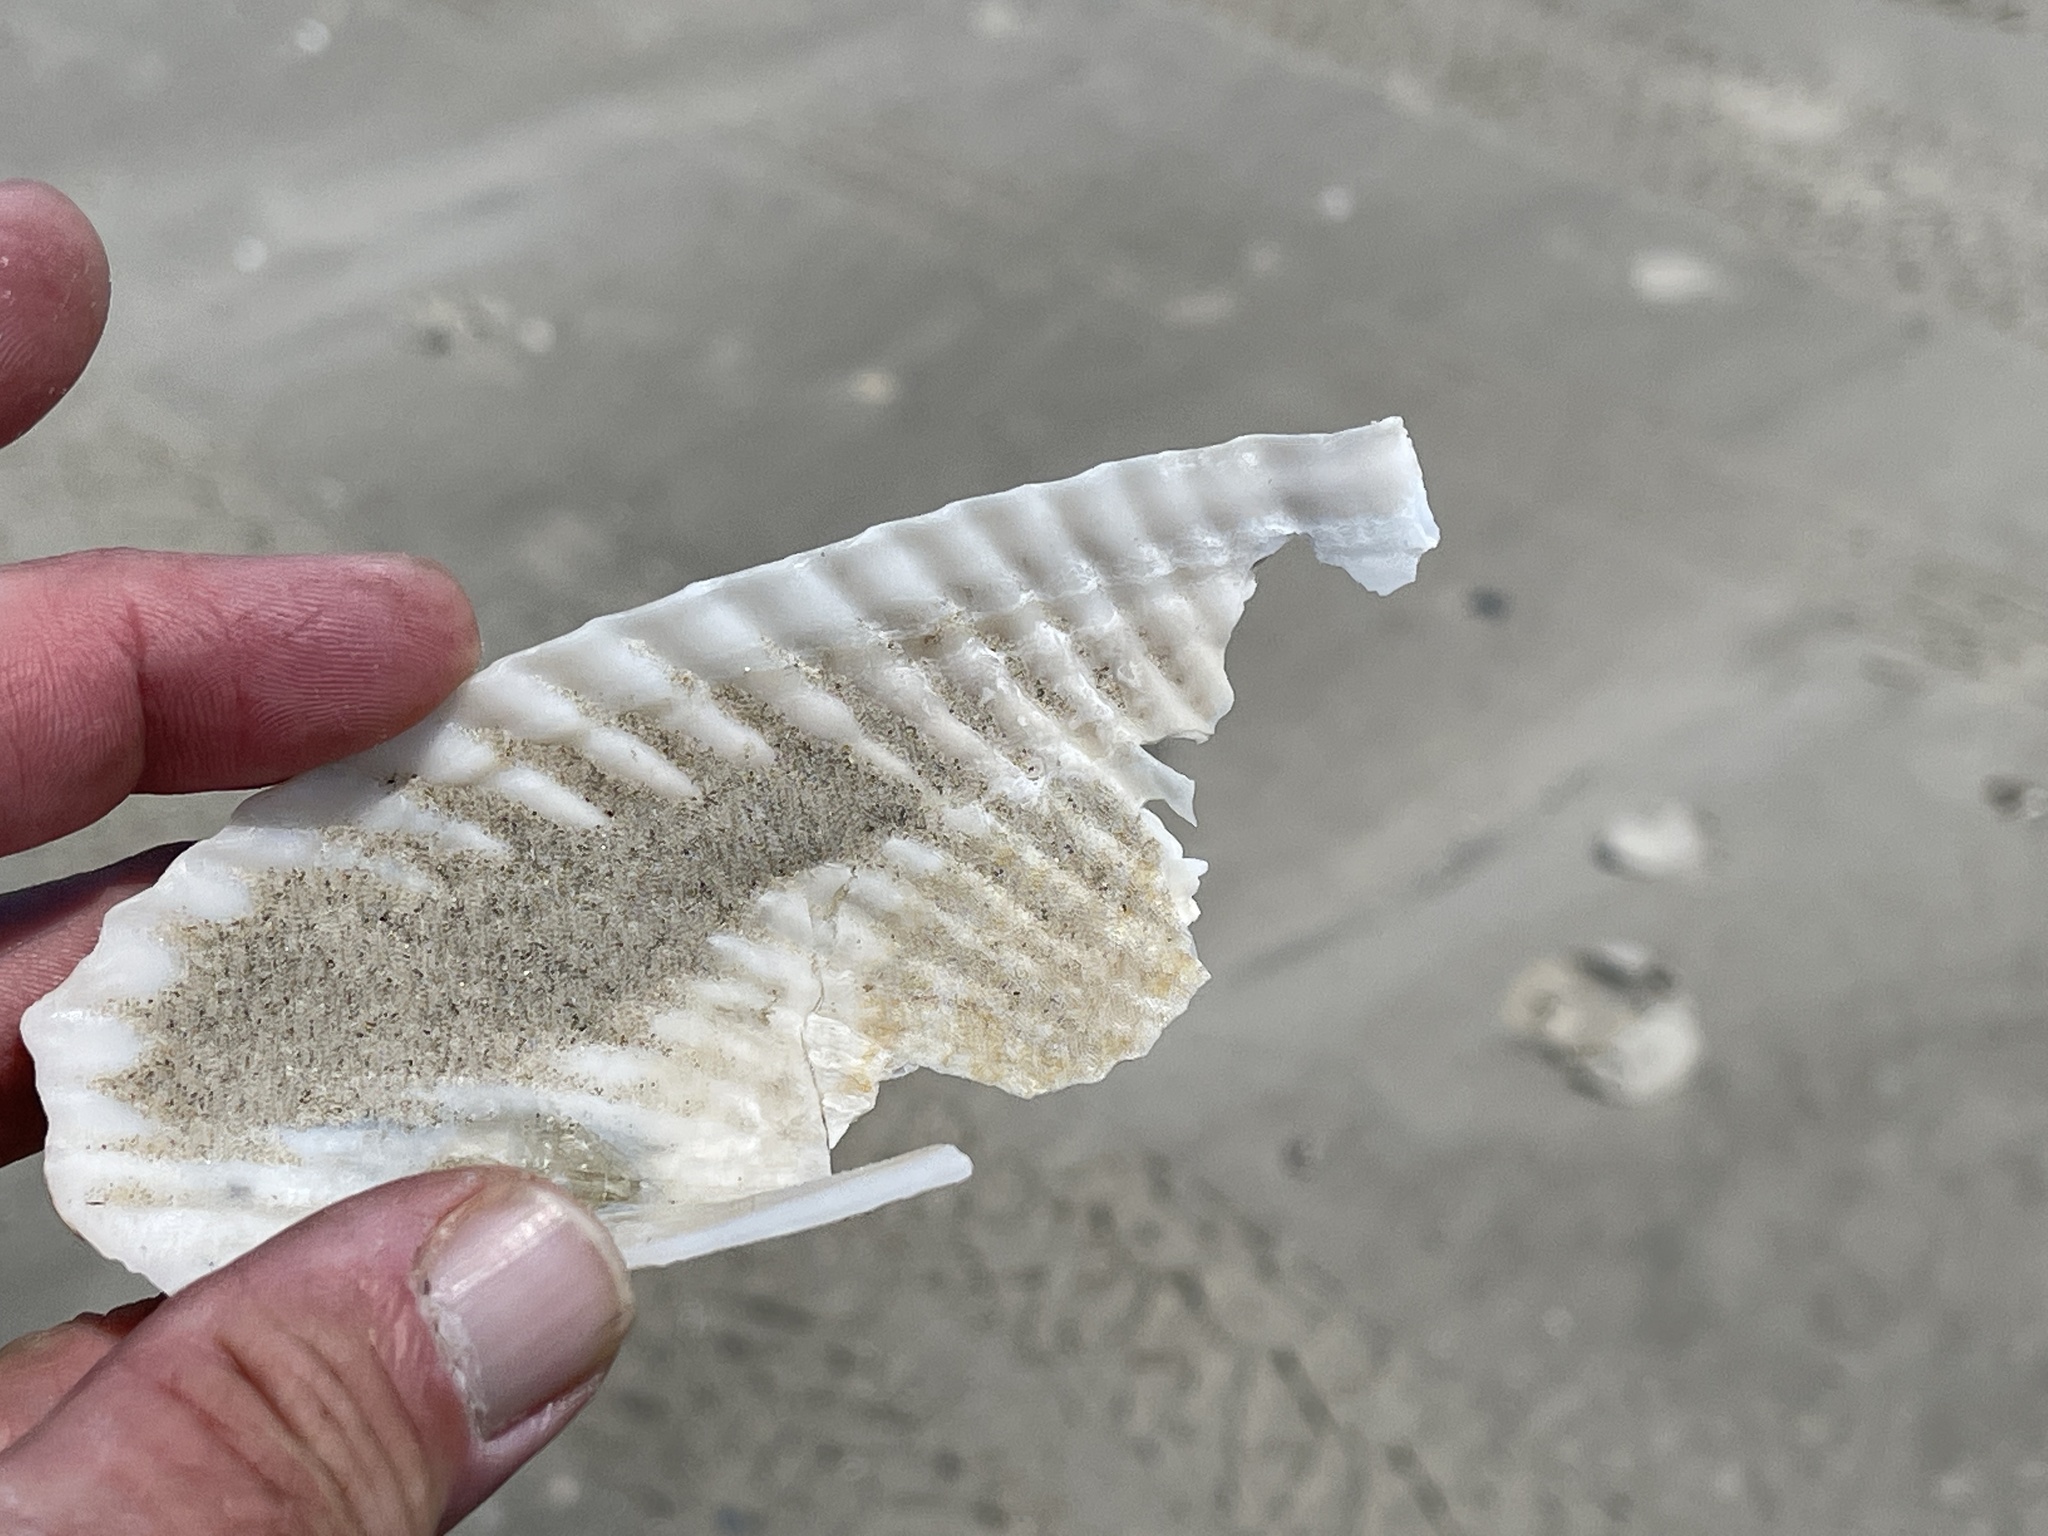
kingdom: Animalia
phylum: Mollusca
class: Bivalvia
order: Myida
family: Pholadidae
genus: Cyrtopleura
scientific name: Cyrtopleura costata
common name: Angel wing
